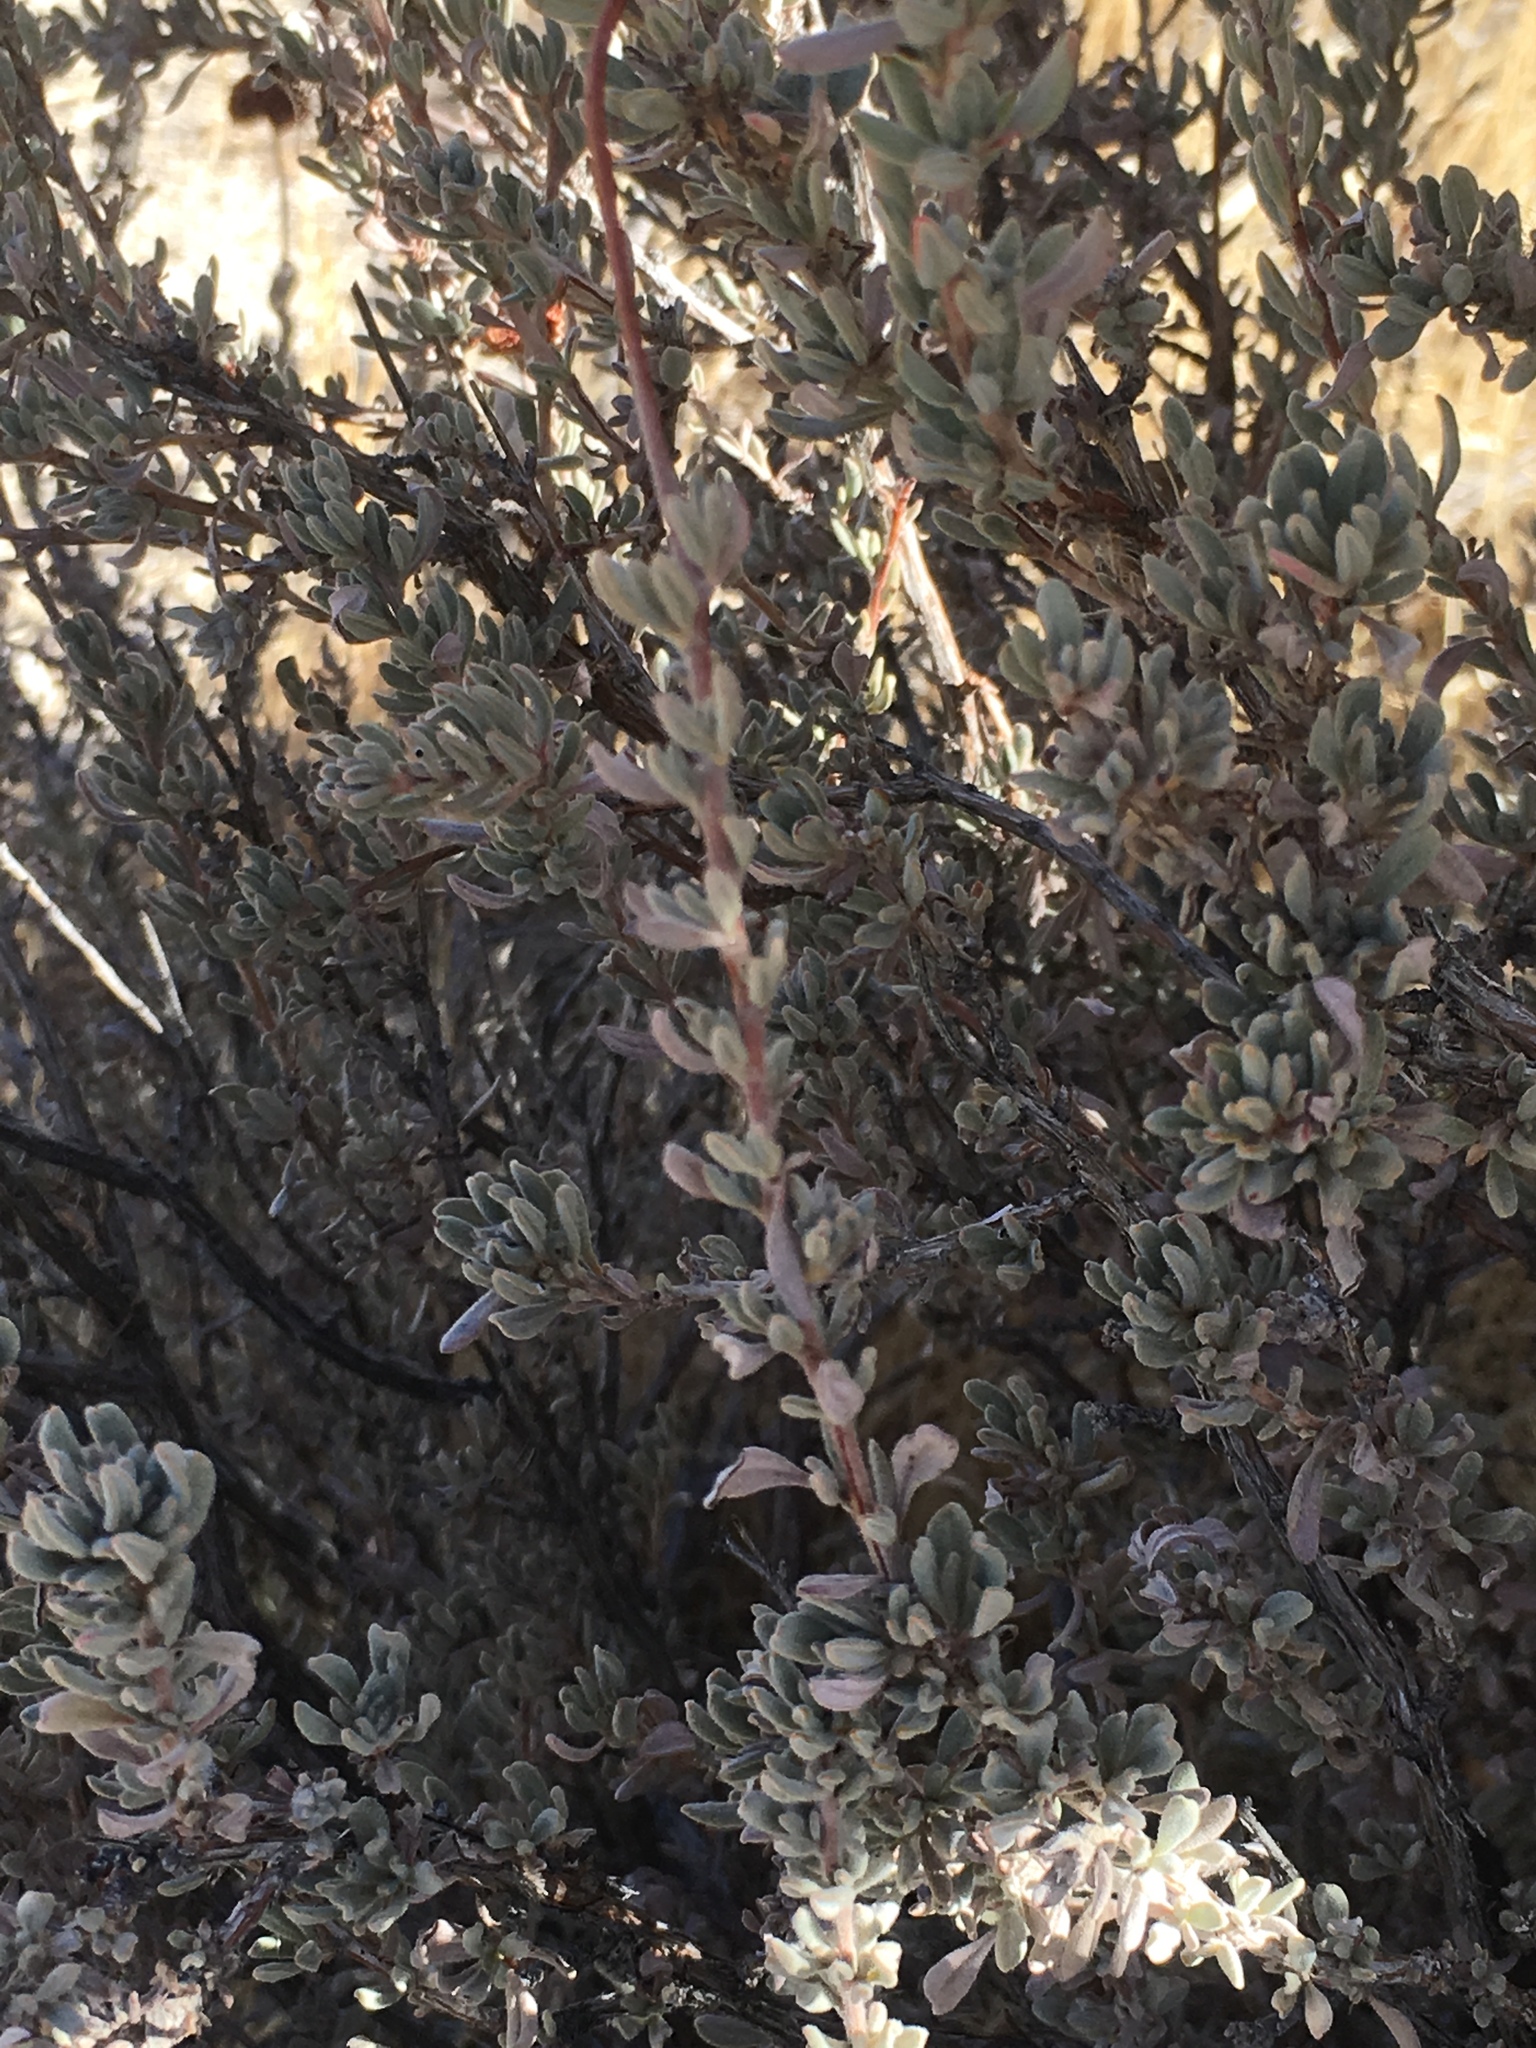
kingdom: Plantae
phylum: Tracheophyta
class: Magnoliopsida
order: Caryophyllales
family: Polygonaceae
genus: Eriogonum
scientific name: Eriogonum fasciculatum
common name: California wild buckwheat
